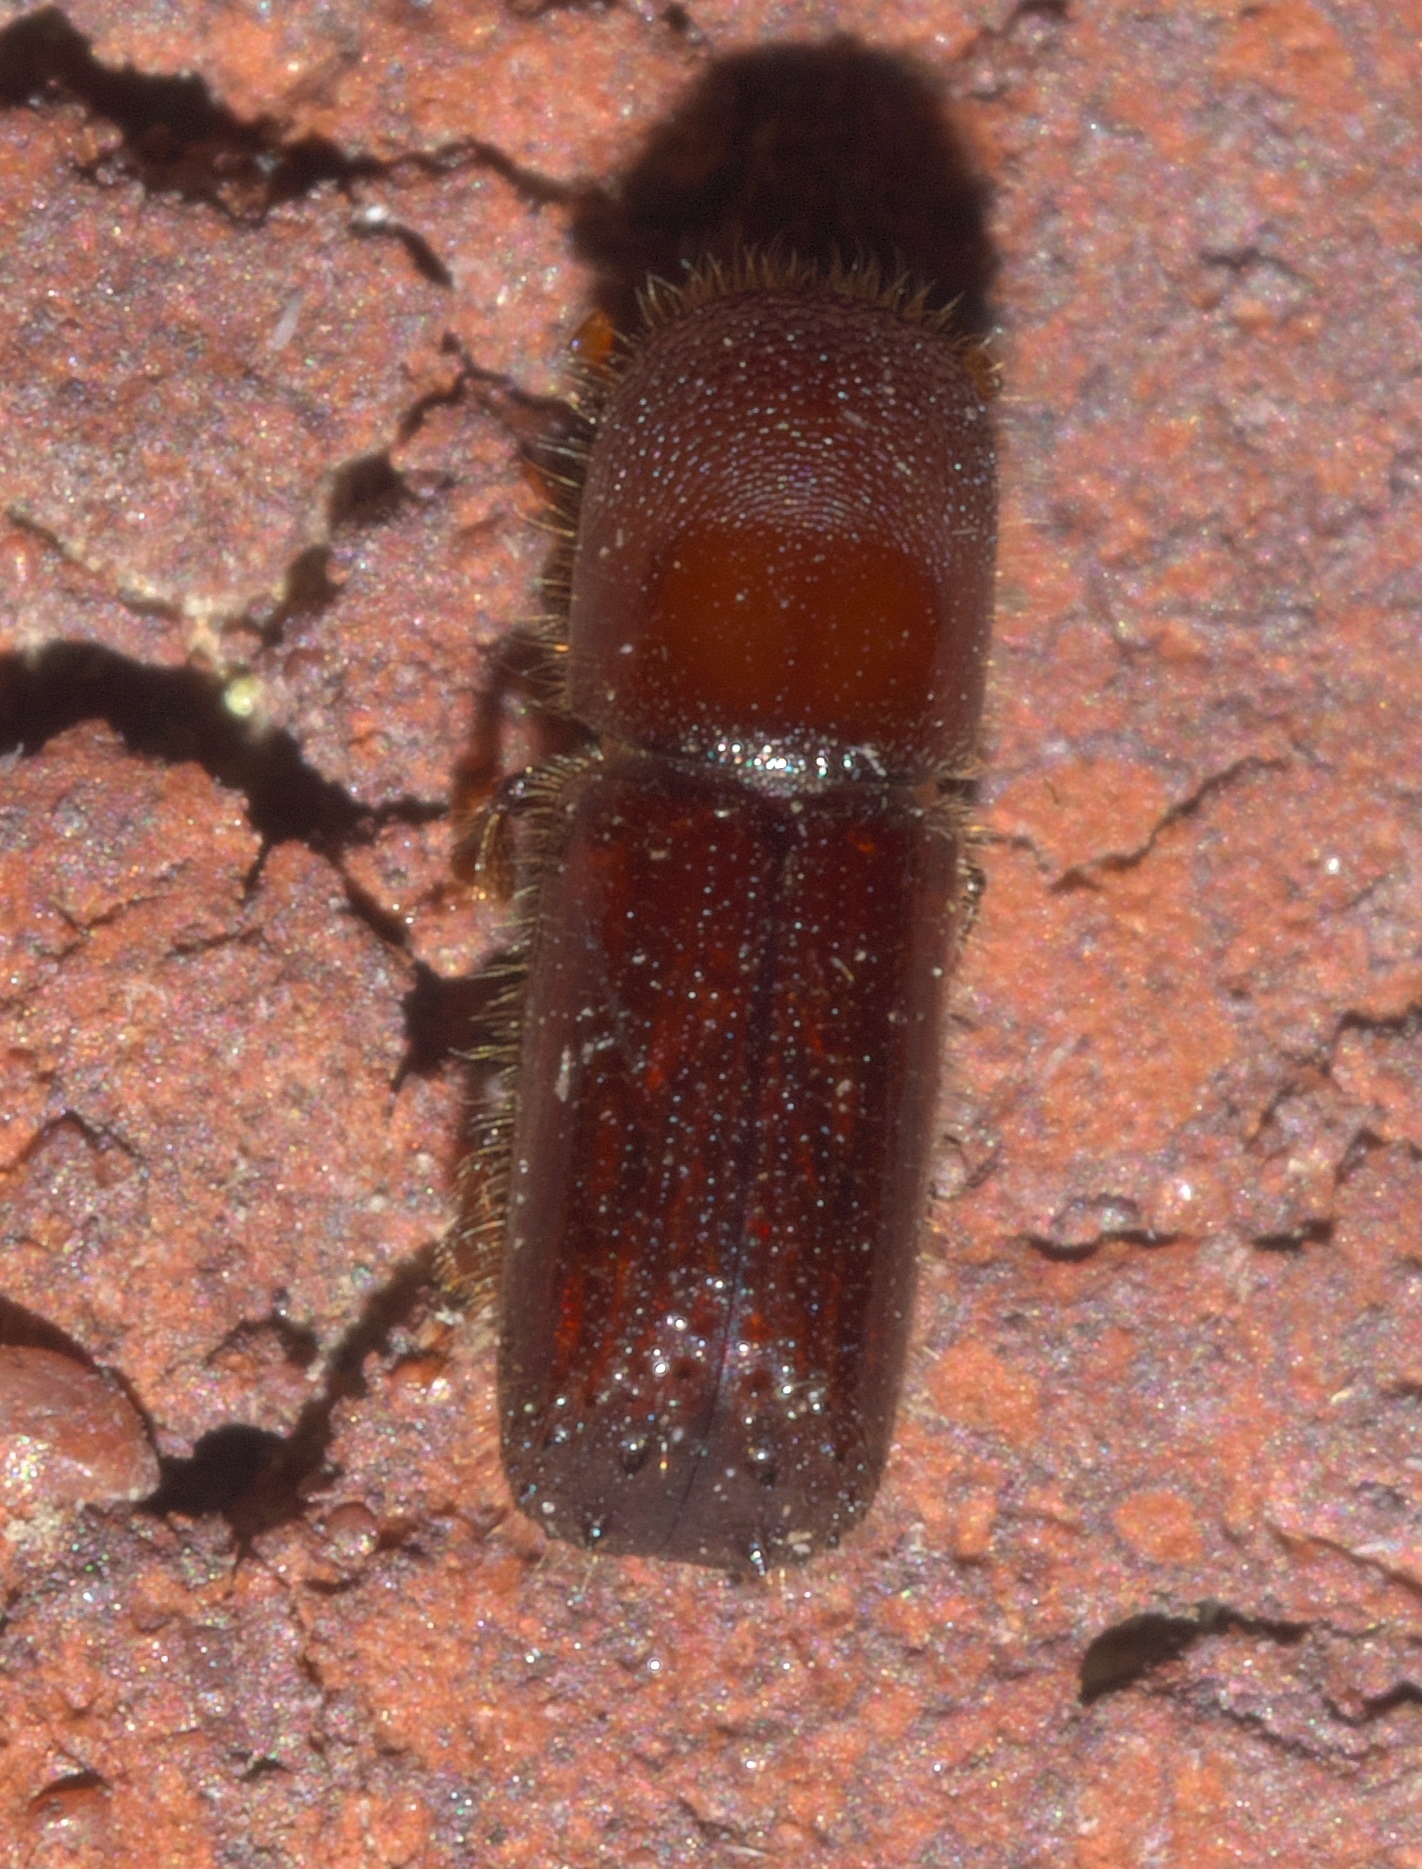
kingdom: Animalia
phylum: Arthropoda
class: Insecta
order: Coleoptera
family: Curculionidae
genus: Xyleborus
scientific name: Xyleborus celsus
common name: Weevil
